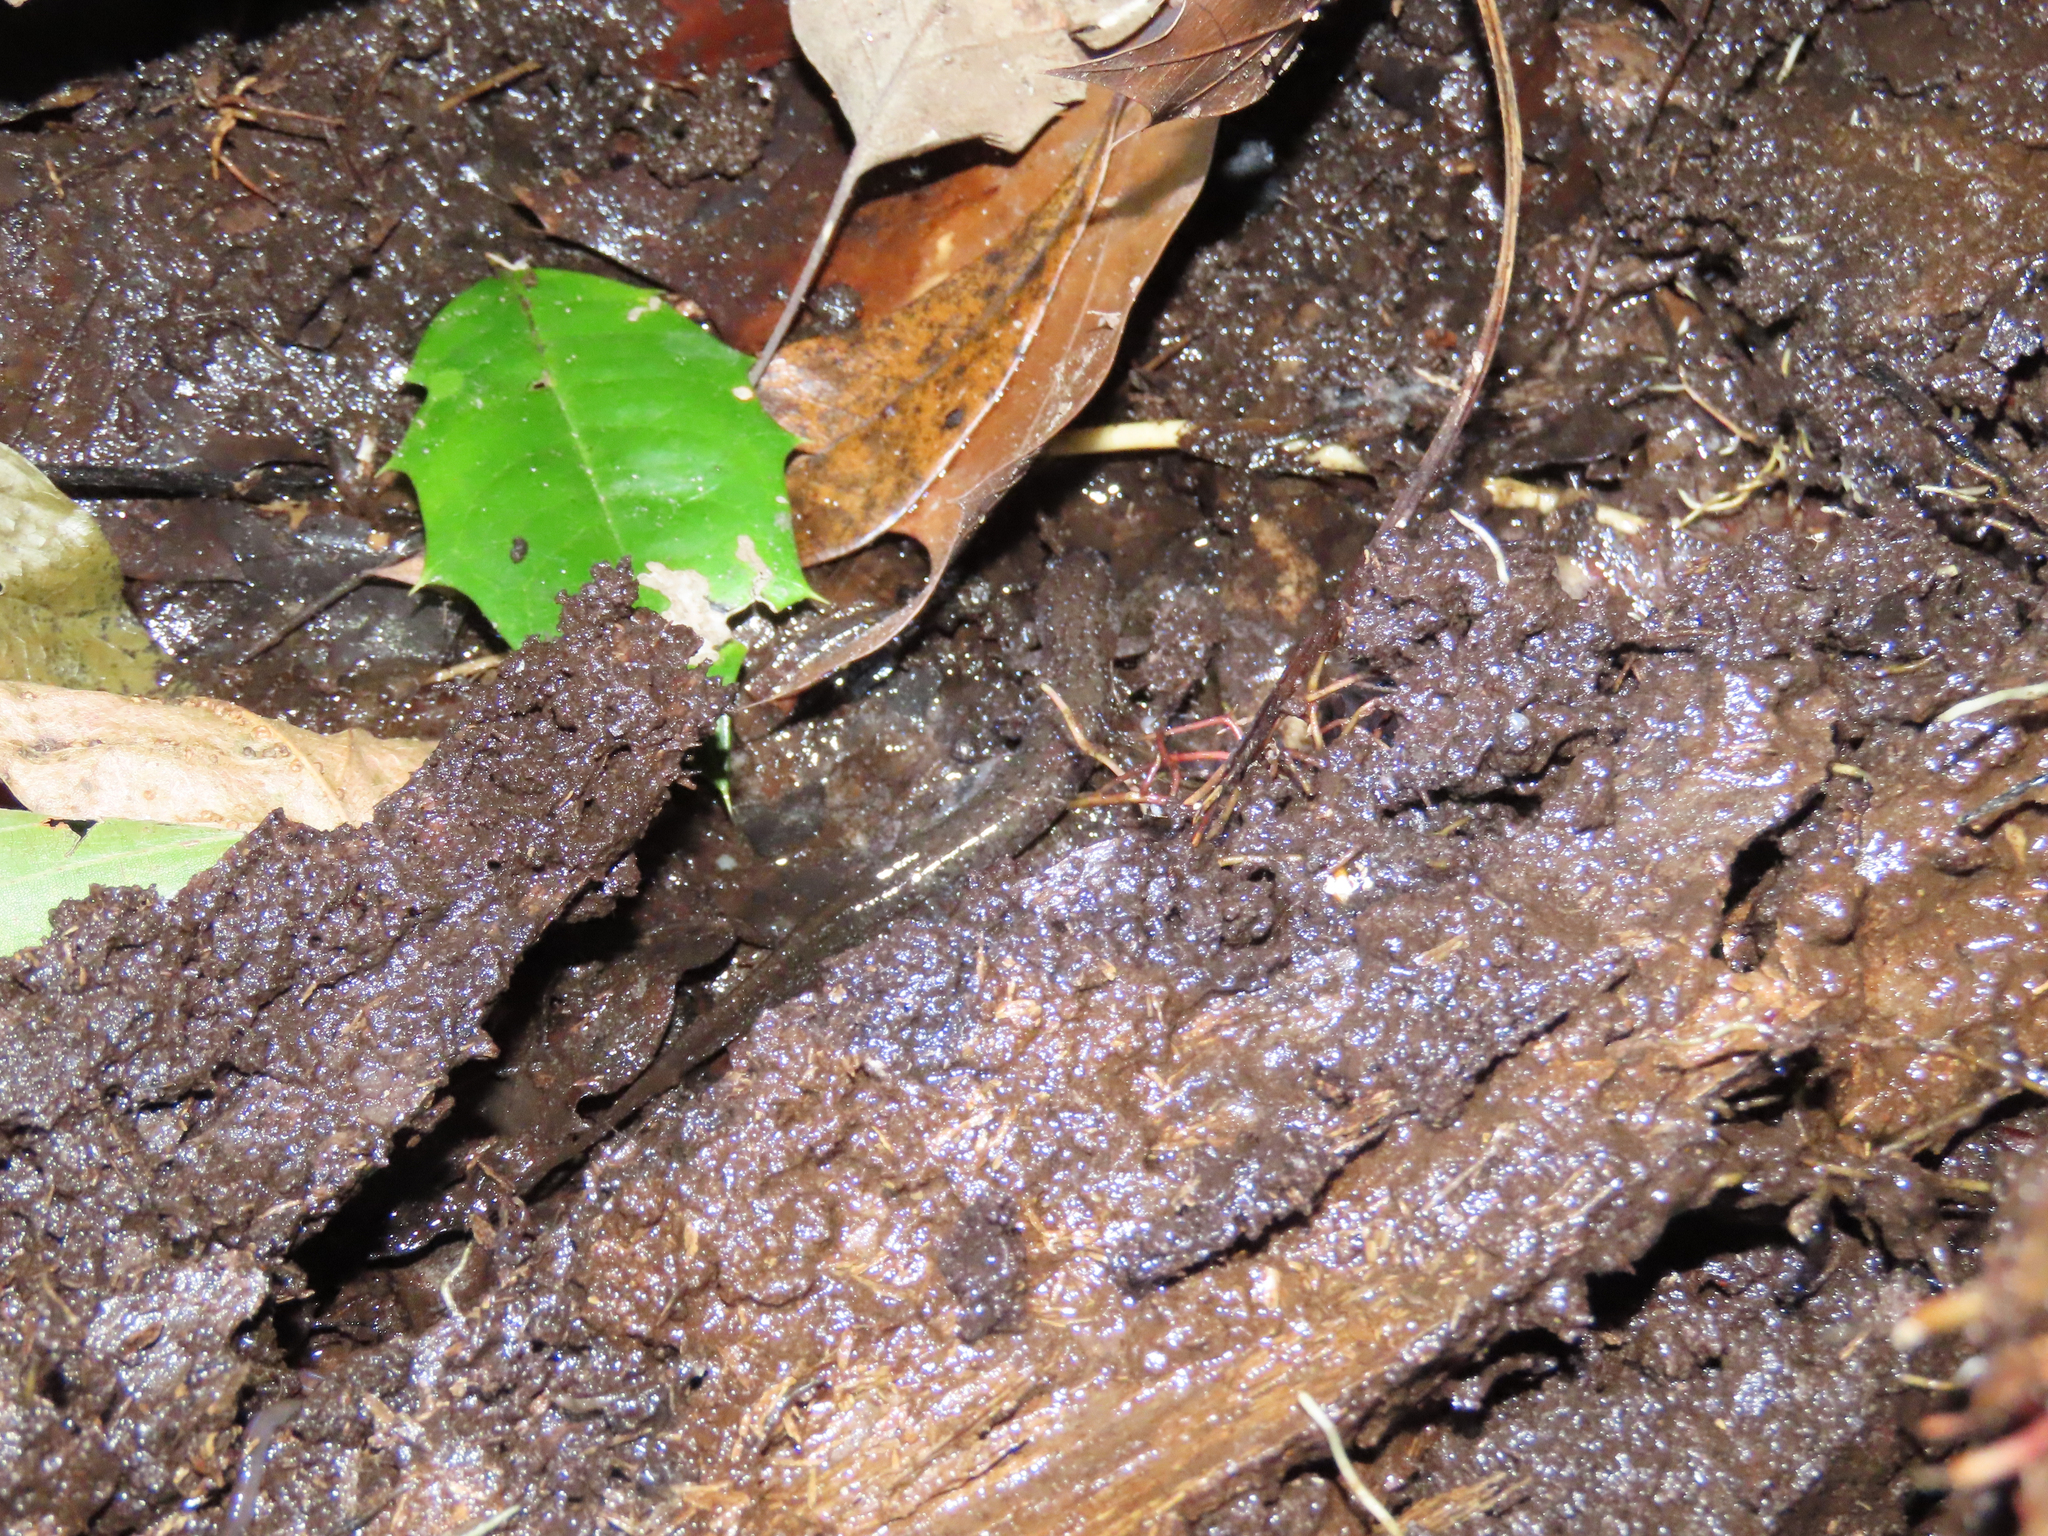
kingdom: Animalia
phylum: Chordata
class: Amphibia
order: Caudata
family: Plethodontidae
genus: Desmognathus
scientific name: Desmognathus fuscus
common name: Northern dusky salamander
